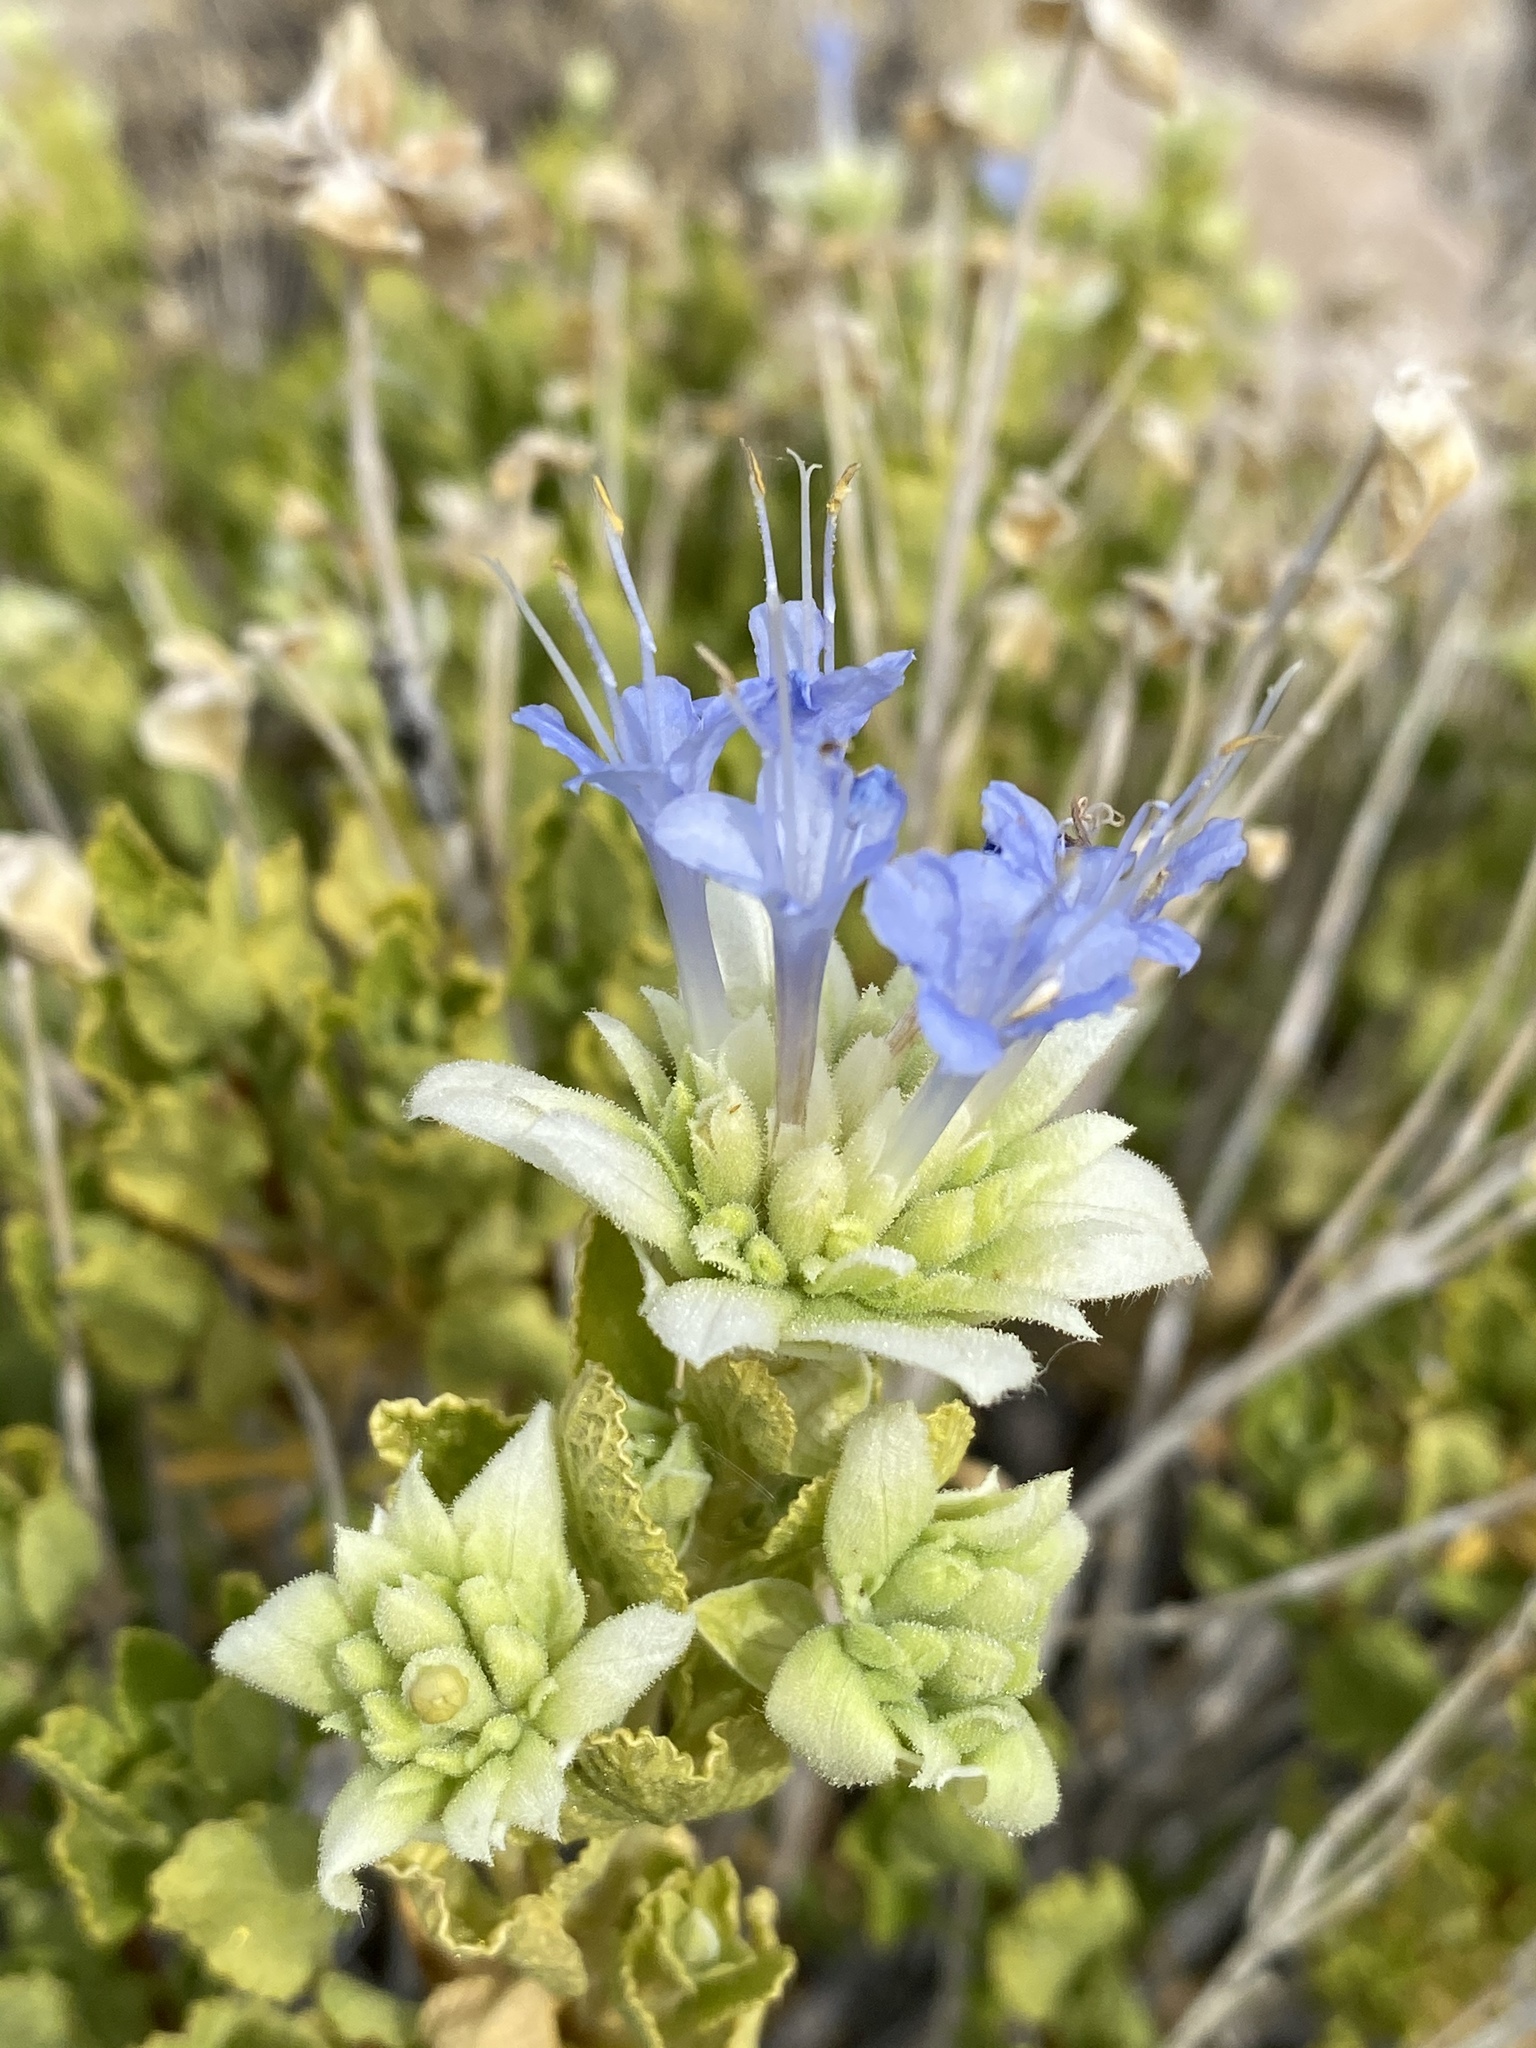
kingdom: Plantae
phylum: Tracheophyta
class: Magnoliopsida
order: Lamiales
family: Lamiaceae
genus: Salvia
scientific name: Salvia mohavensis
